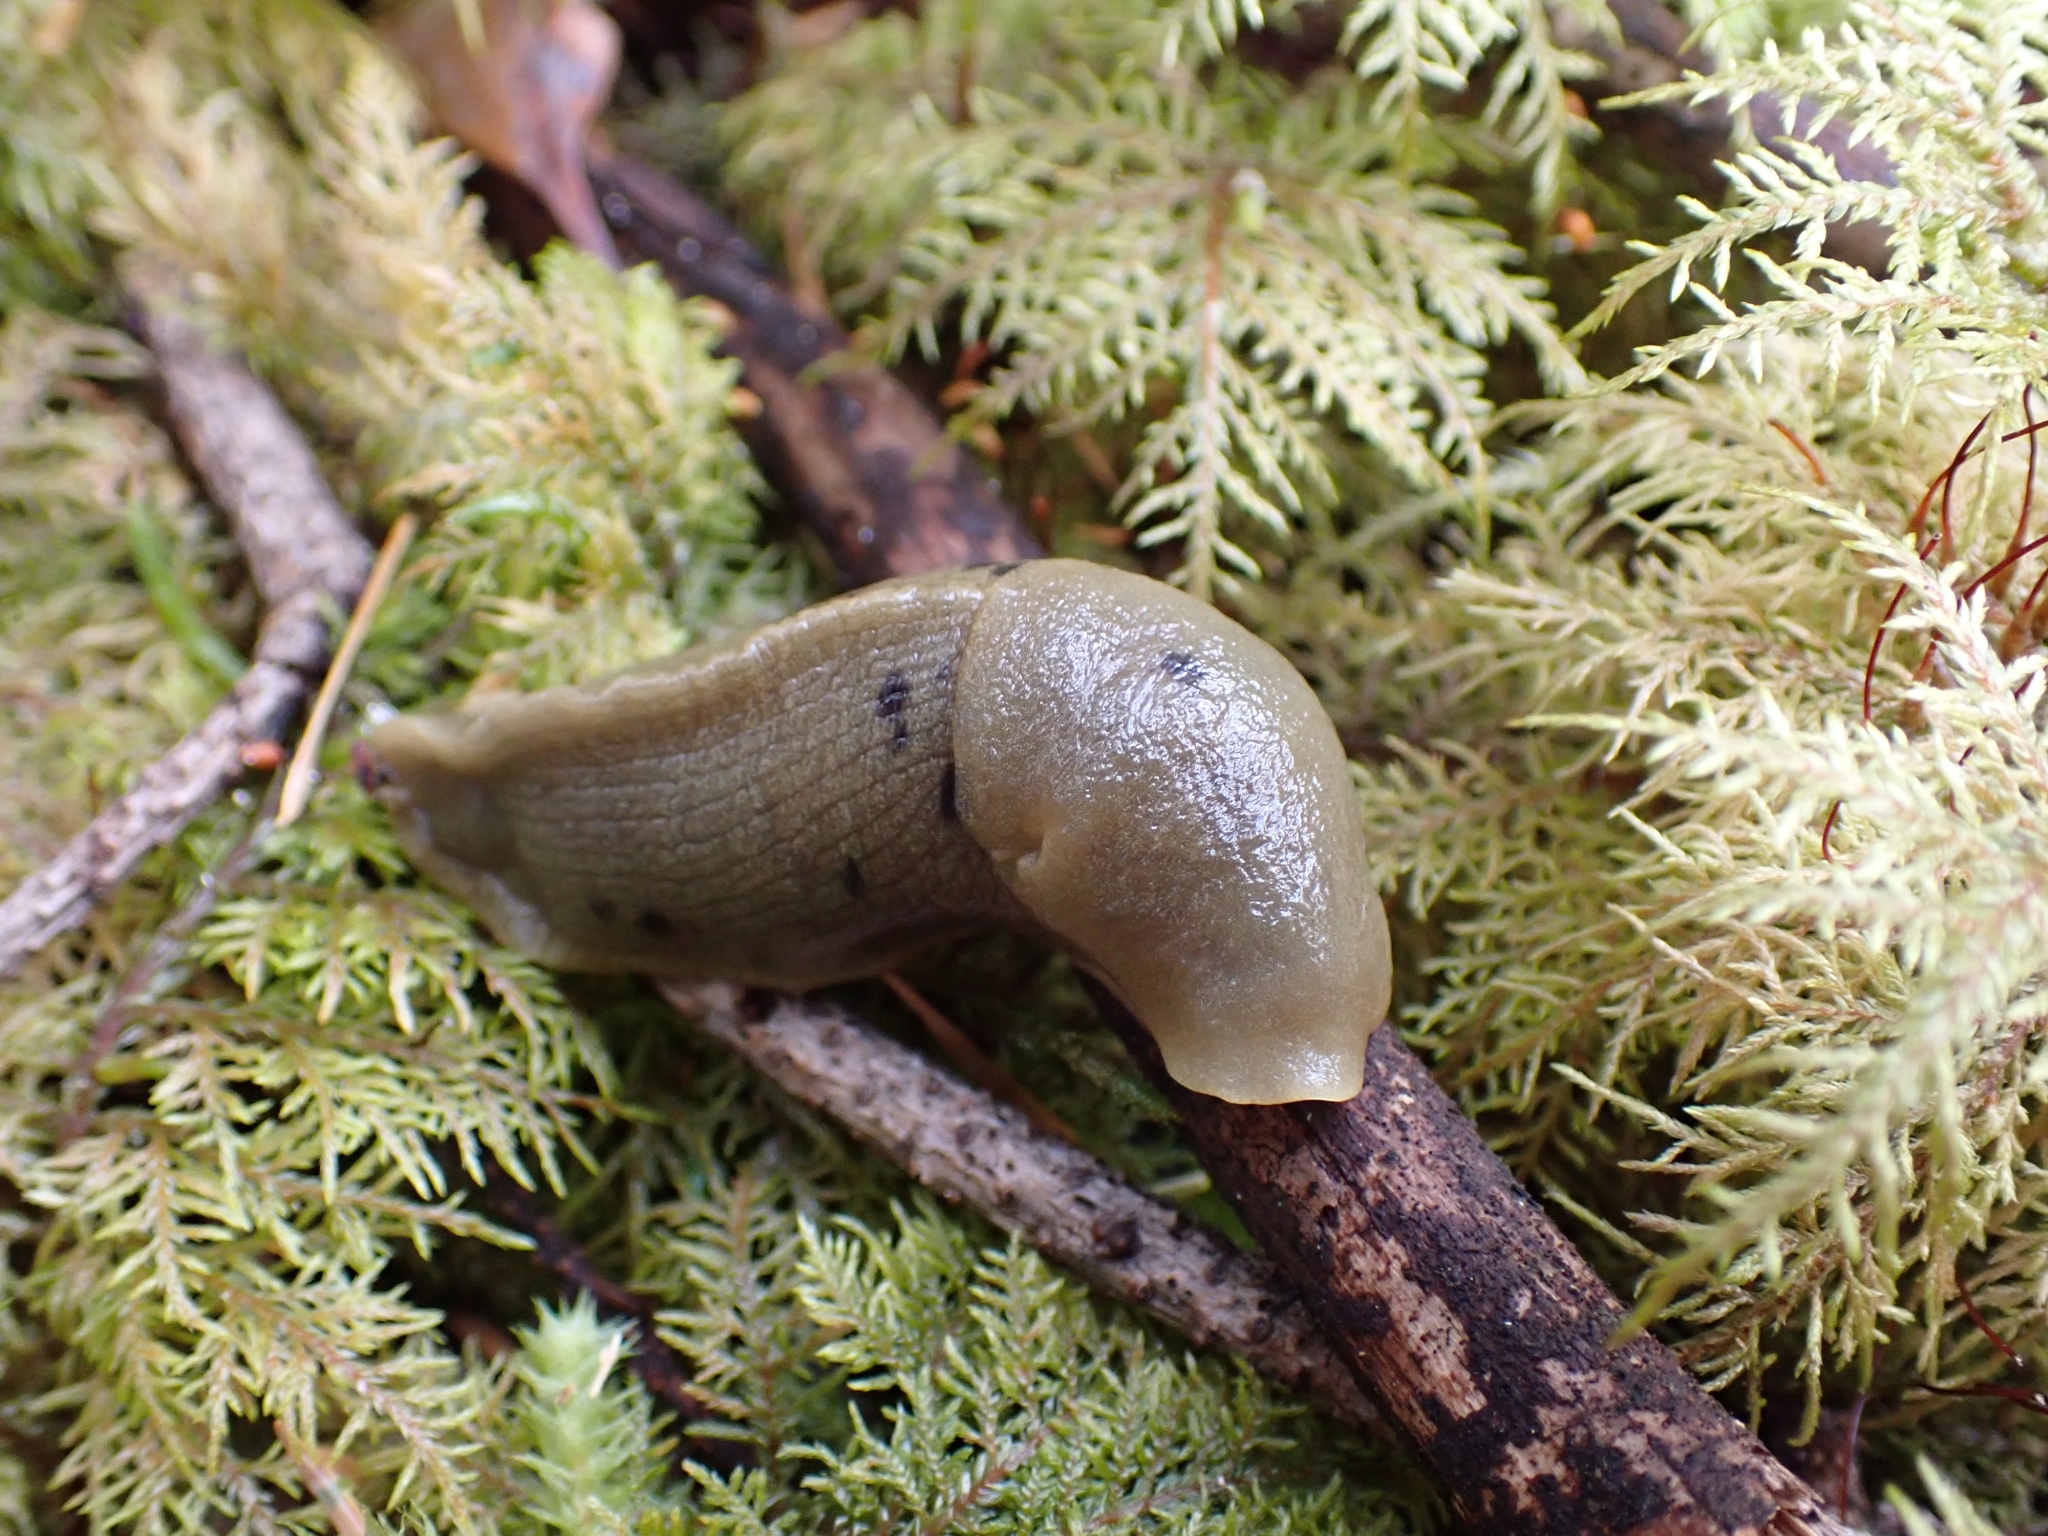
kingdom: Animalia
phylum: Mollusca
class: Gastropoda
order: Stylommatophora
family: Ariolimacidae
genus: Ariolimax
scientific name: Ariolimax columbianus
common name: Pacific banana slug
